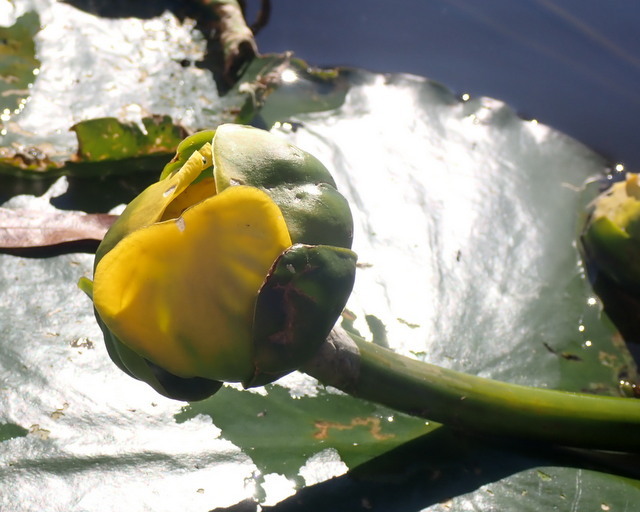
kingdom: Plantae
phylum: Tracheophyta
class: Magnoliopsida
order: Nymphaeales
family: Nymphaeaceae
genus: Nuphar
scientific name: Nuphar advena
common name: Spatter-dock
